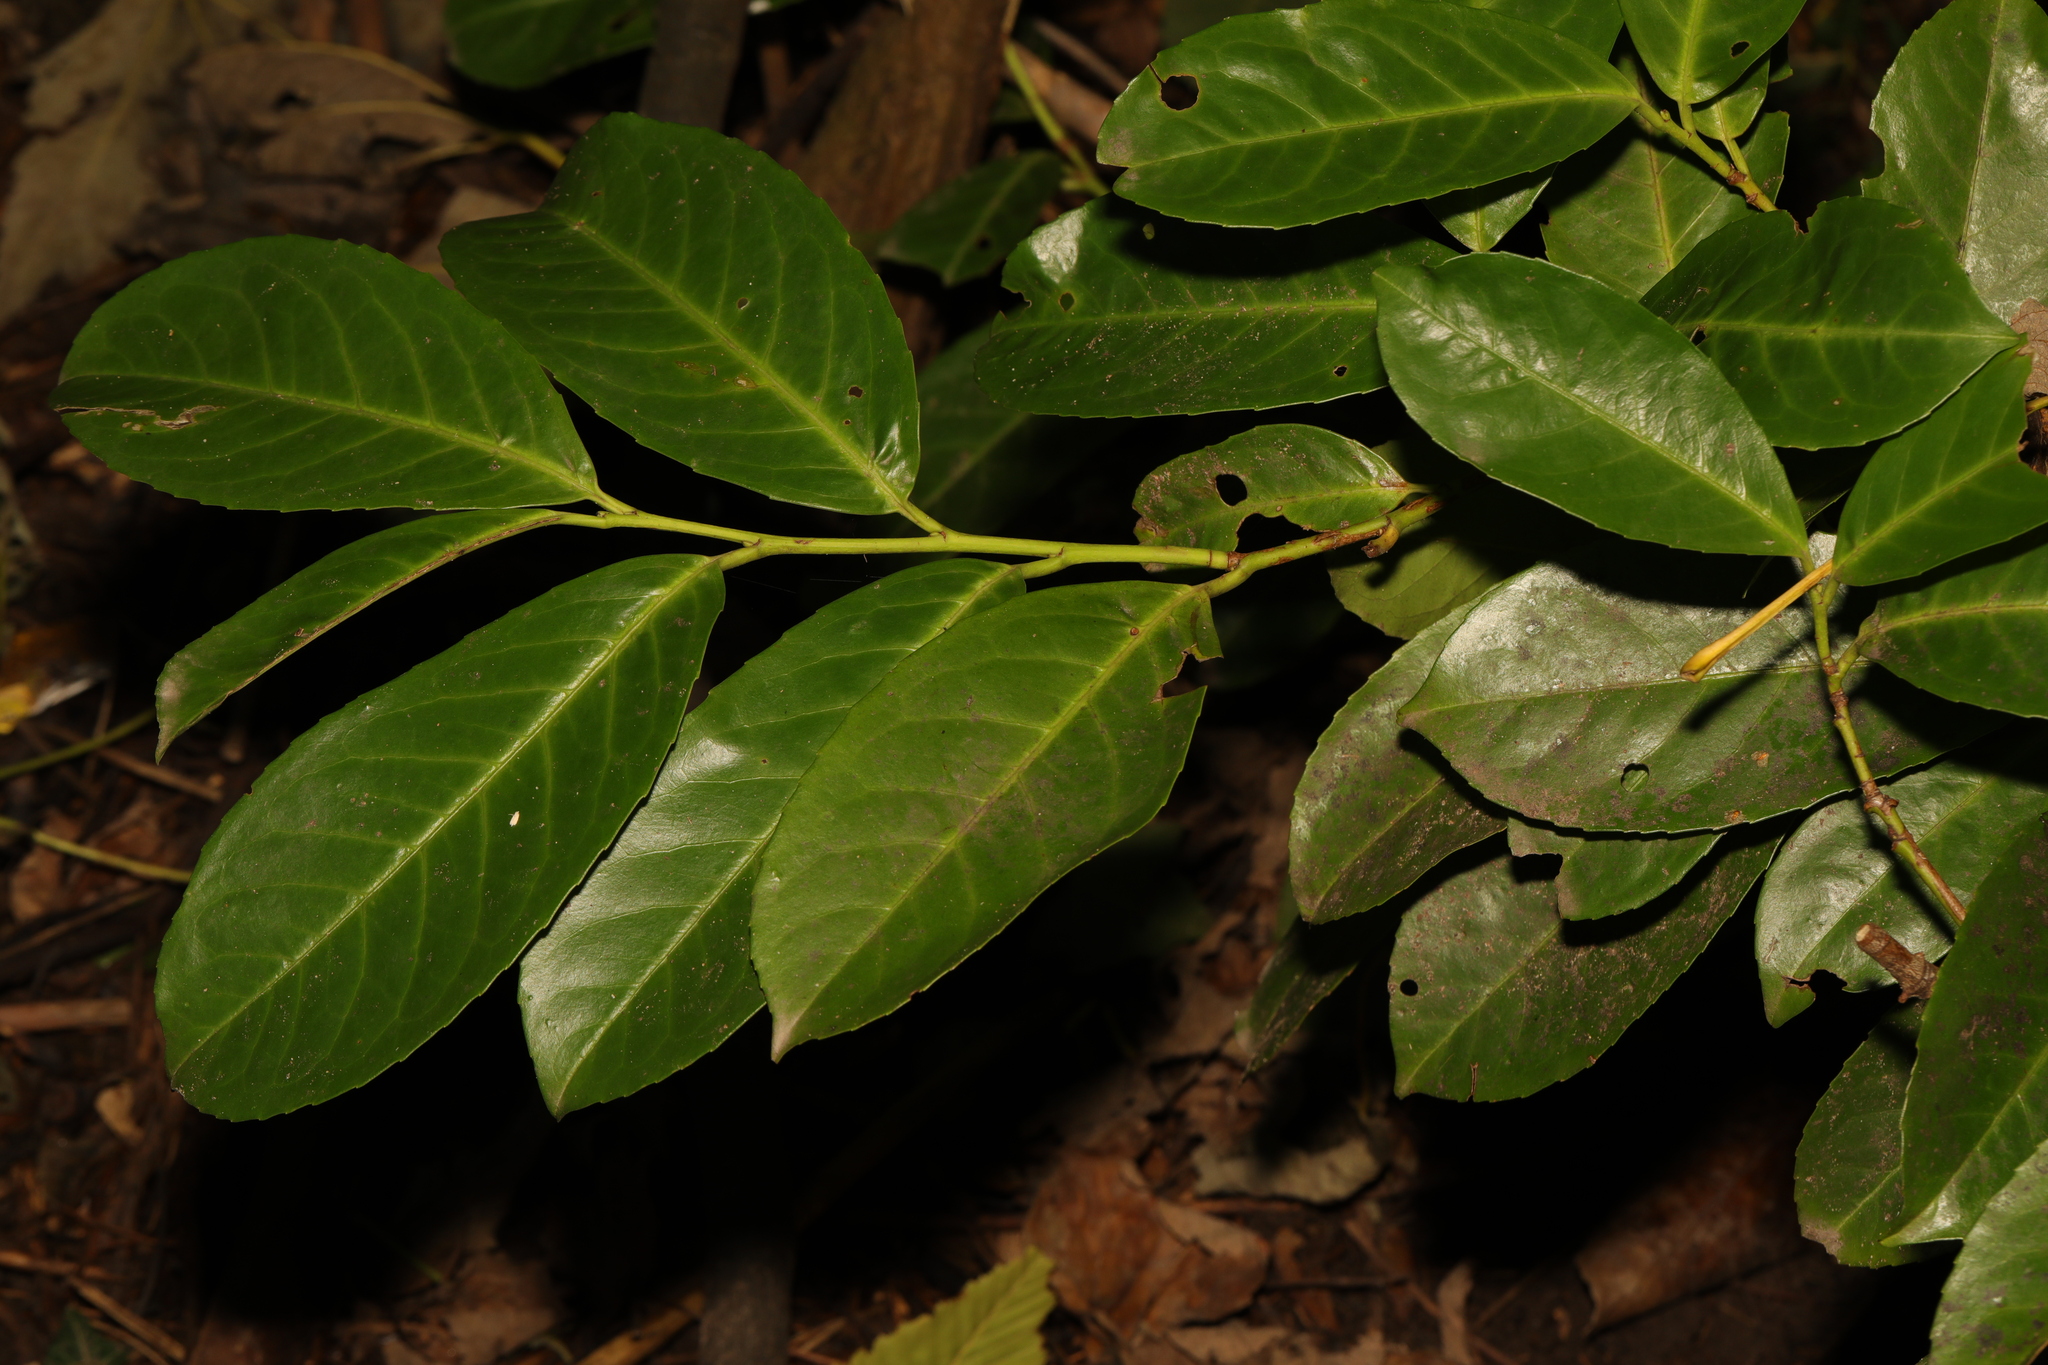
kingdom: Plantae
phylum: Tracheophyta
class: Magnoliopsida
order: Rosales
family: Rosaceae
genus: Prunus
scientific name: Prunus laurocerasus
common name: Cherry laurel
